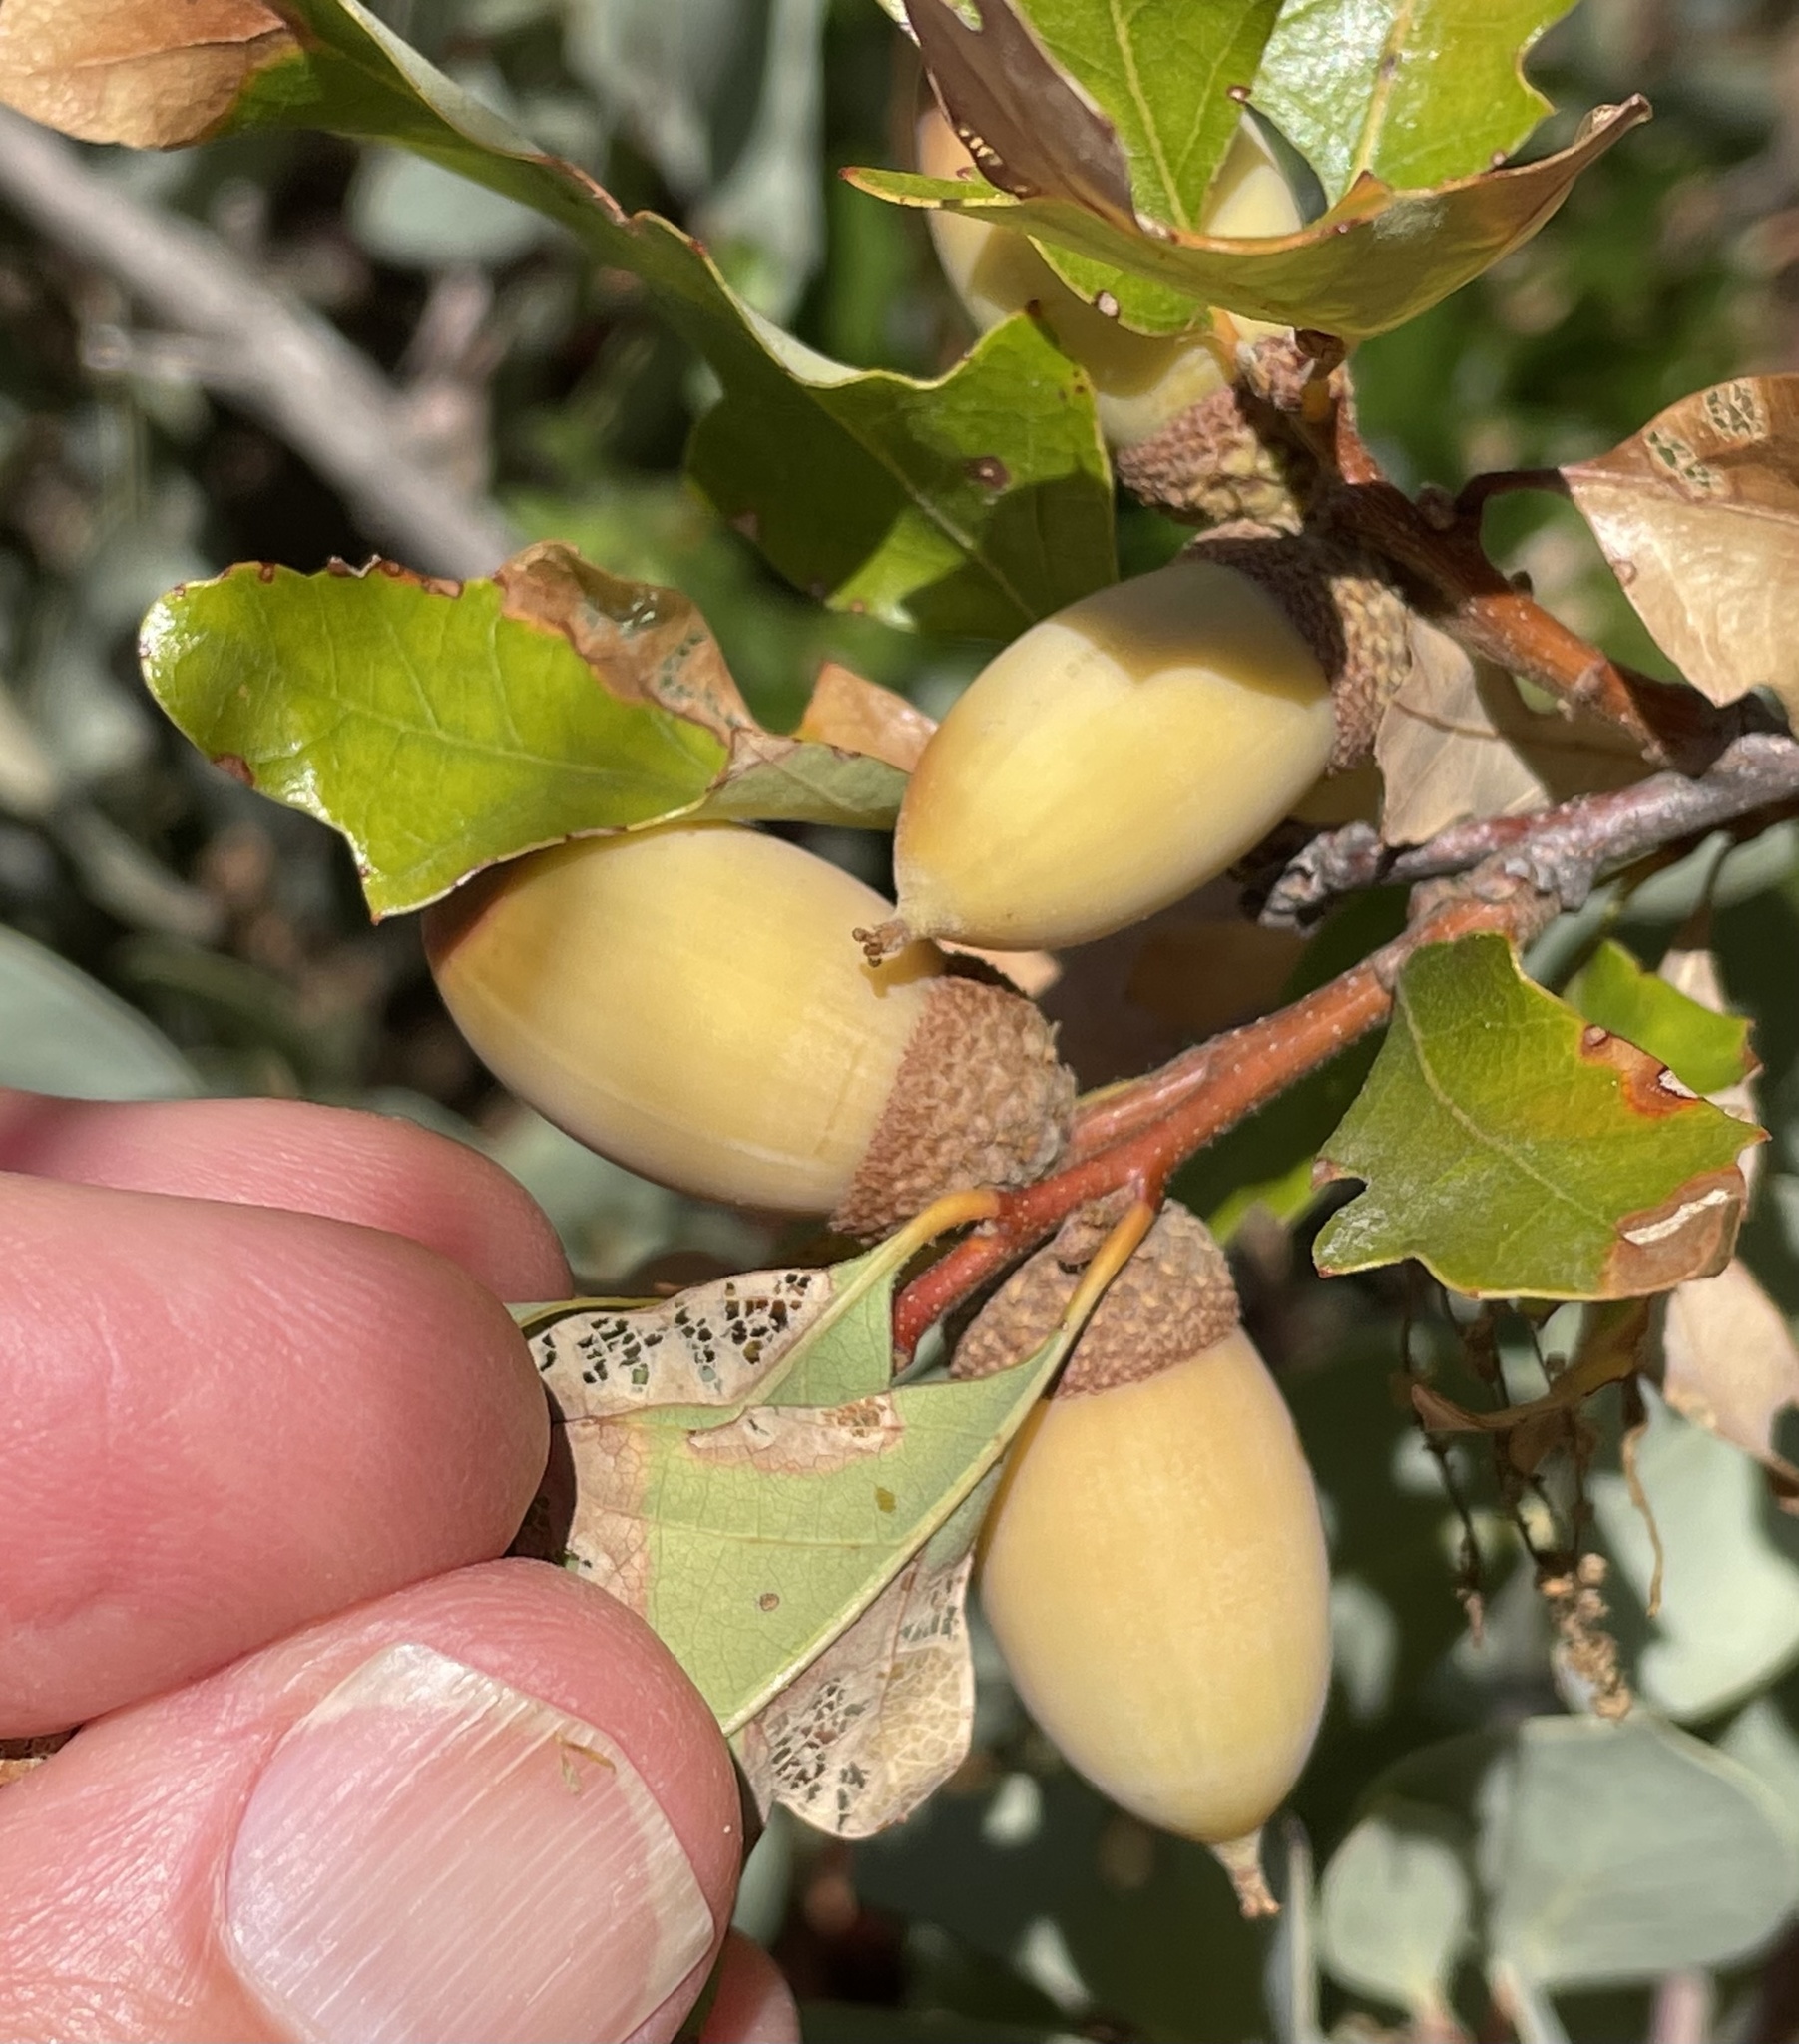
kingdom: Plantae
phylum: Tracheophyta
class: Magnoliopsida
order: Fagales
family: Fagaceae
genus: Quercus
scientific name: Quercus garryana
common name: Garry oak
